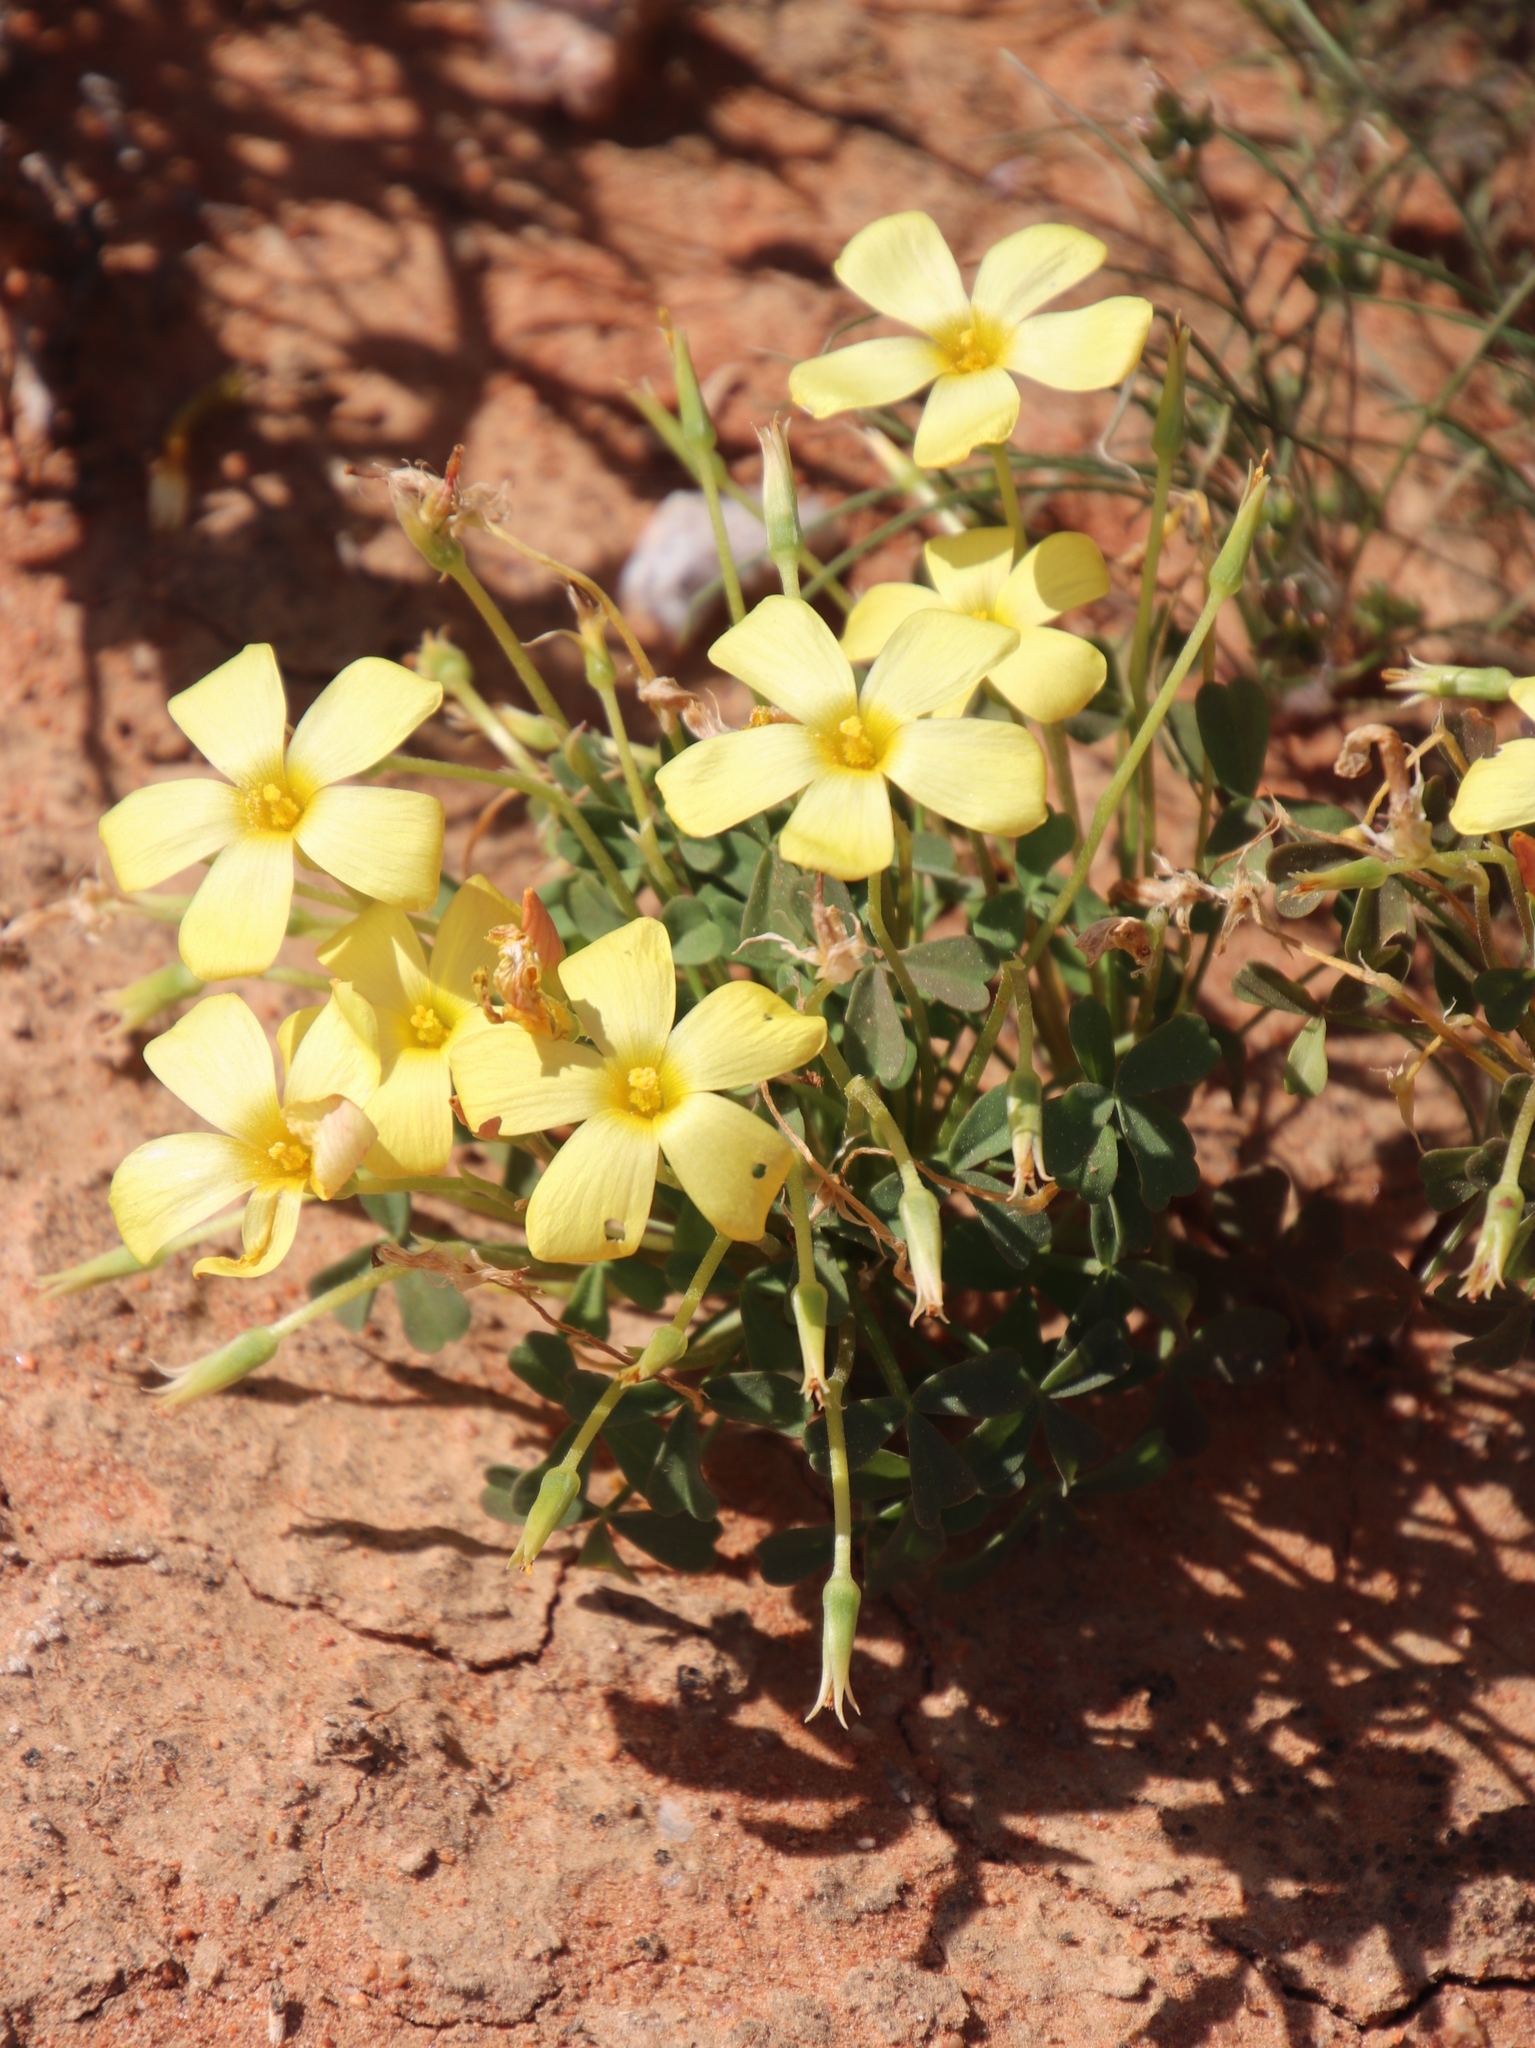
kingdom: Plantae
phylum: Tracheophyta
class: Magnoliopsida
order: Oxalidales
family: Oxalidaceae
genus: Oxalis
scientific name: Oxalis obtusa
